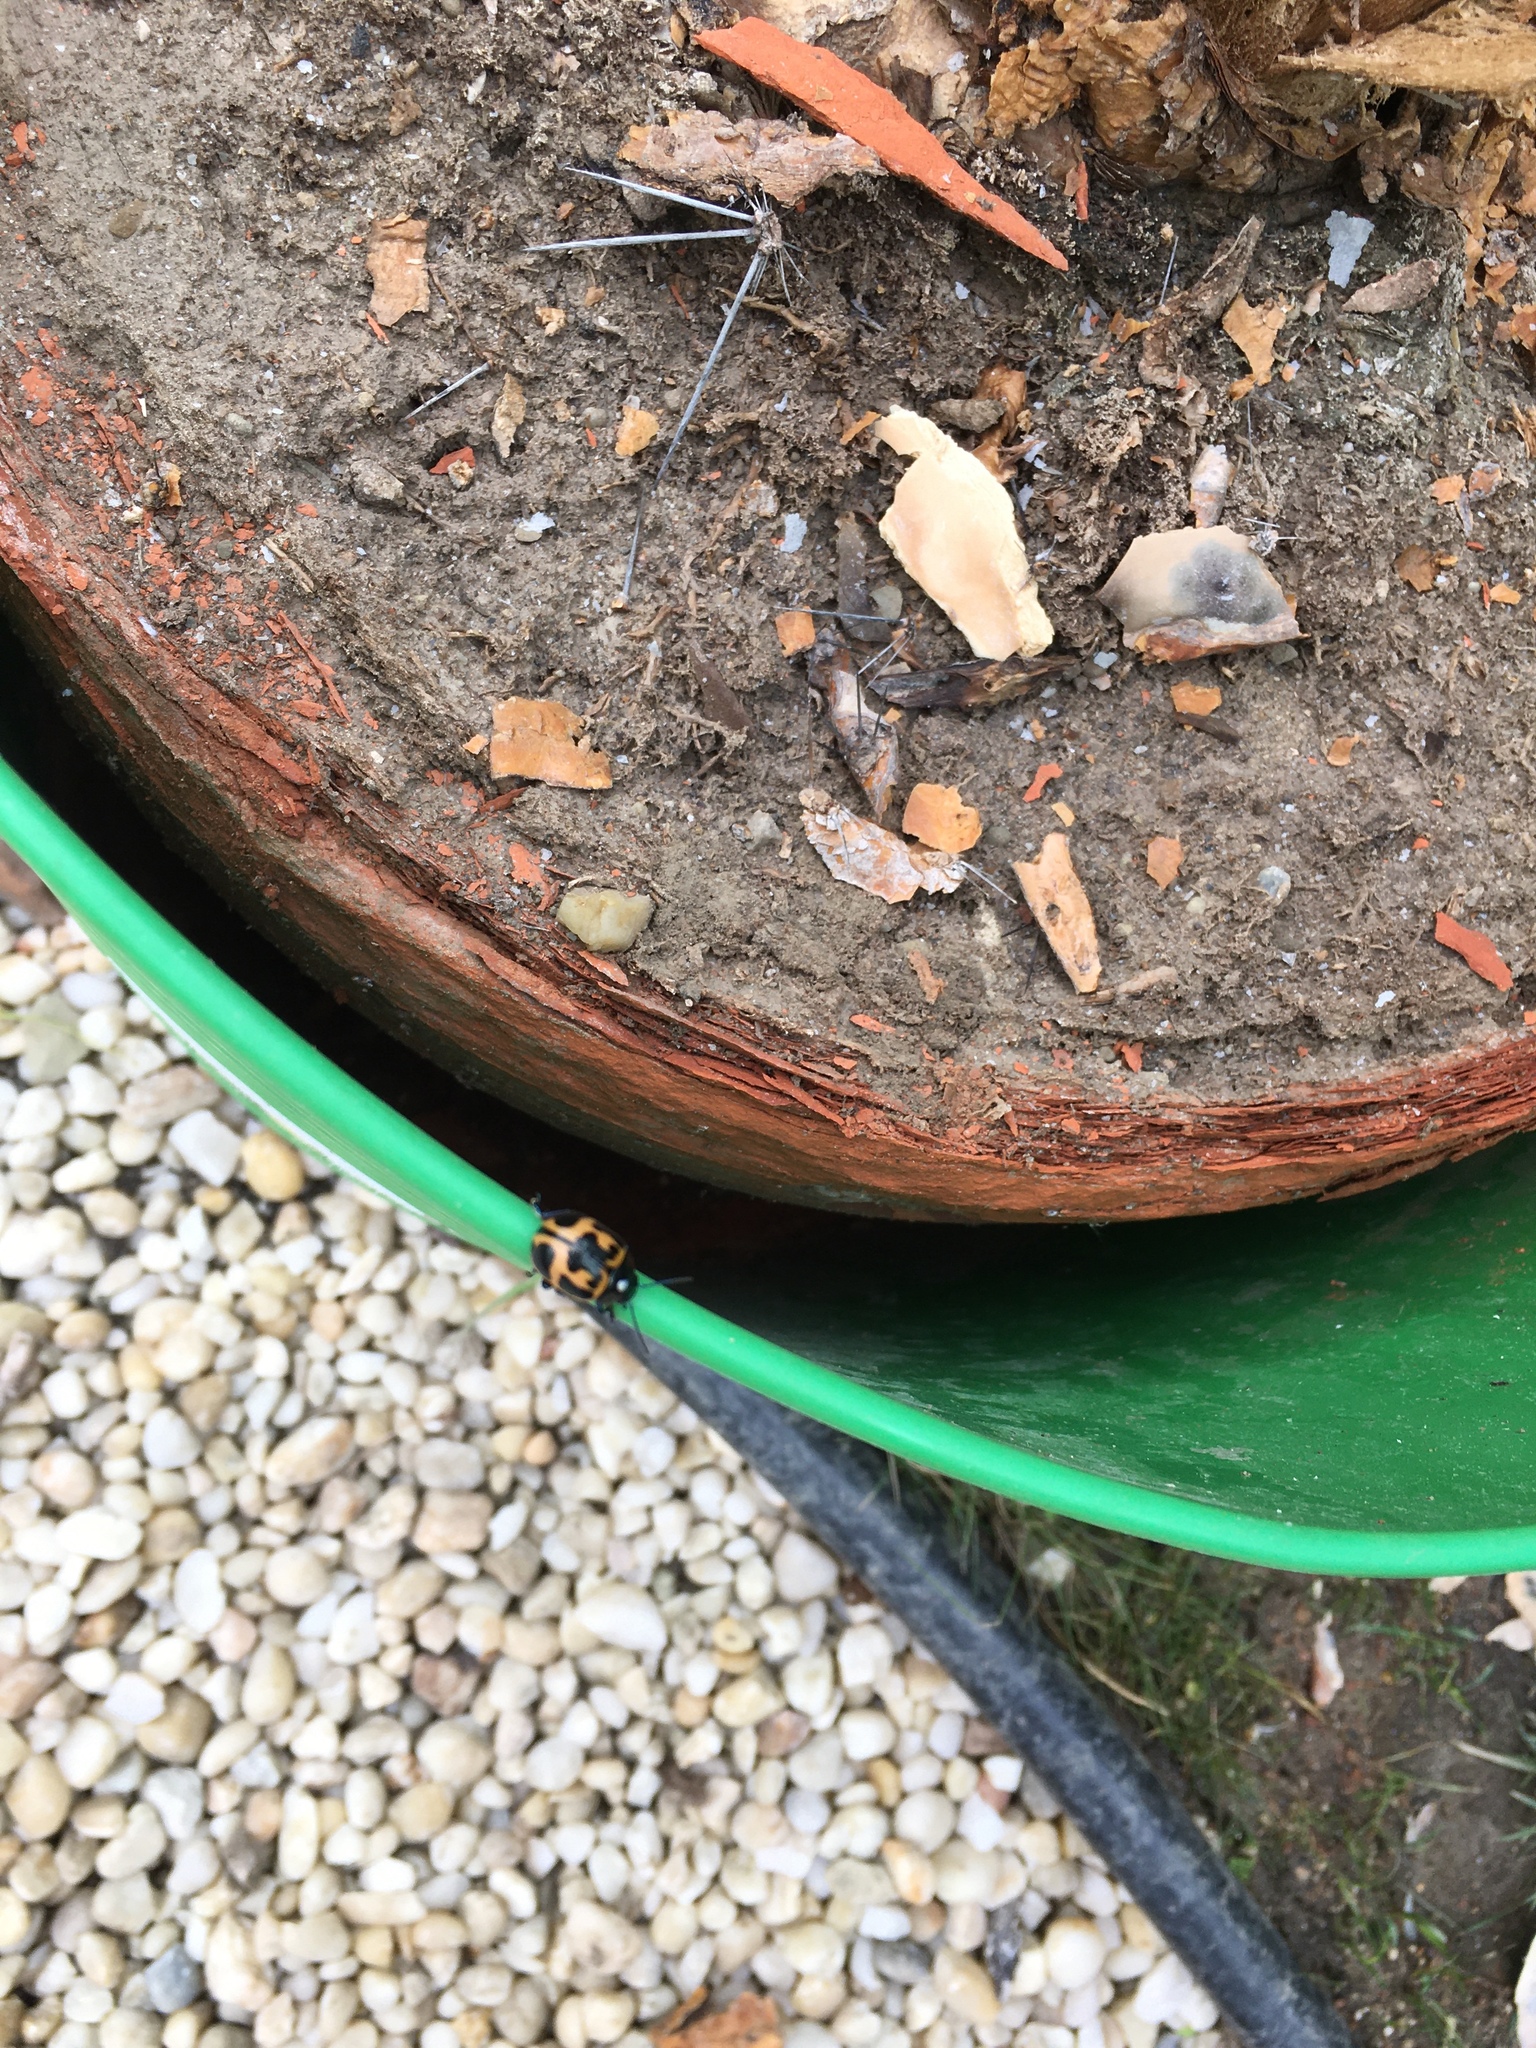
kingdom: Animalia
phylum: Arthropoda
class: Insecta
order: Coleoptera
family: Chrysomelidae
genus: Labidomera
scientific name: Labidomera clivicollis
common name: Swamp milkweed leaf beetle
